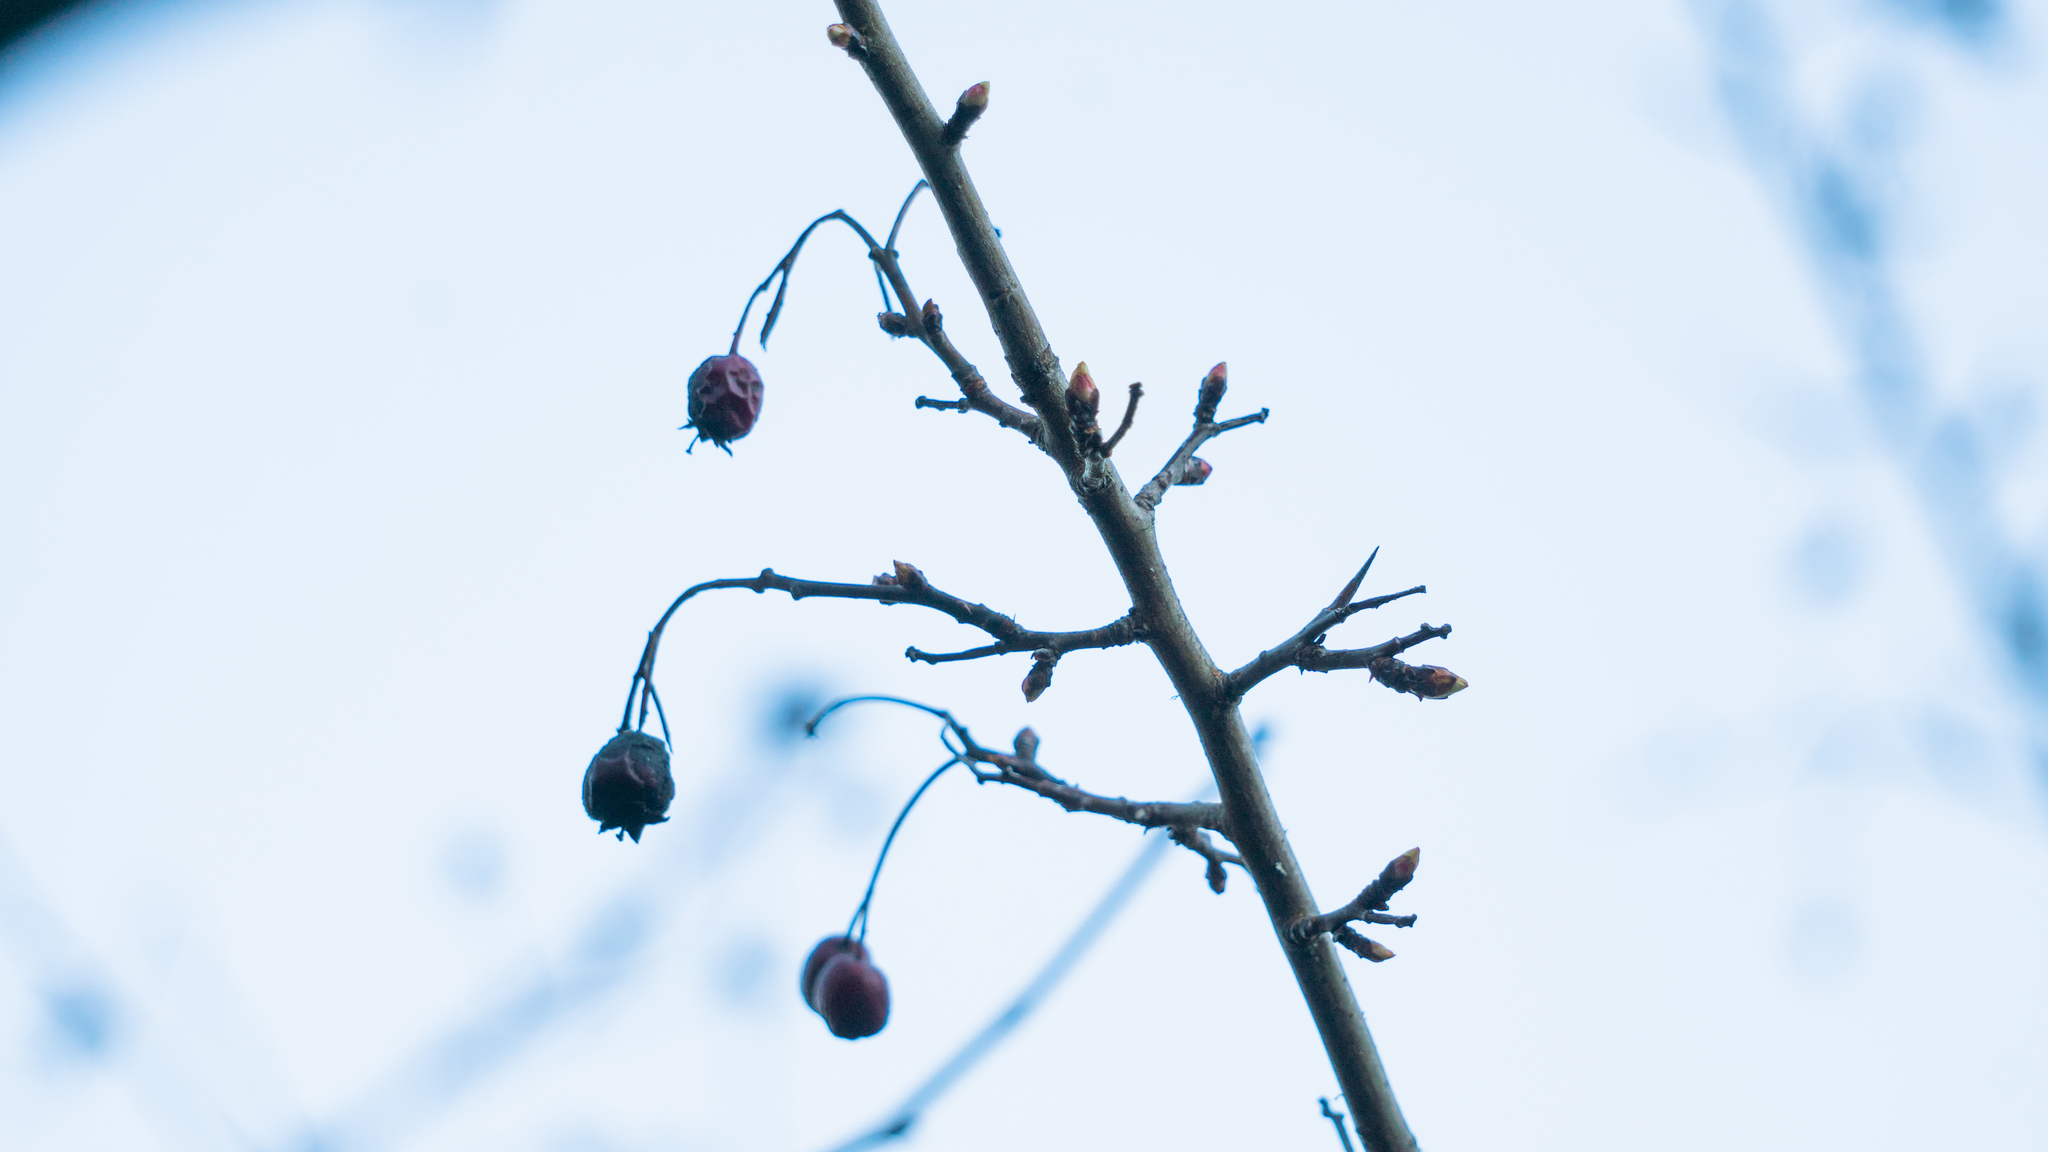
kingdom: Plantae
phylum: Tracheophyta
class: Magnoliopsida
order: Rosales
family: Rosaceae
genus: Malus
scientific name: Malus fusca
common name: Oregon crab apple
